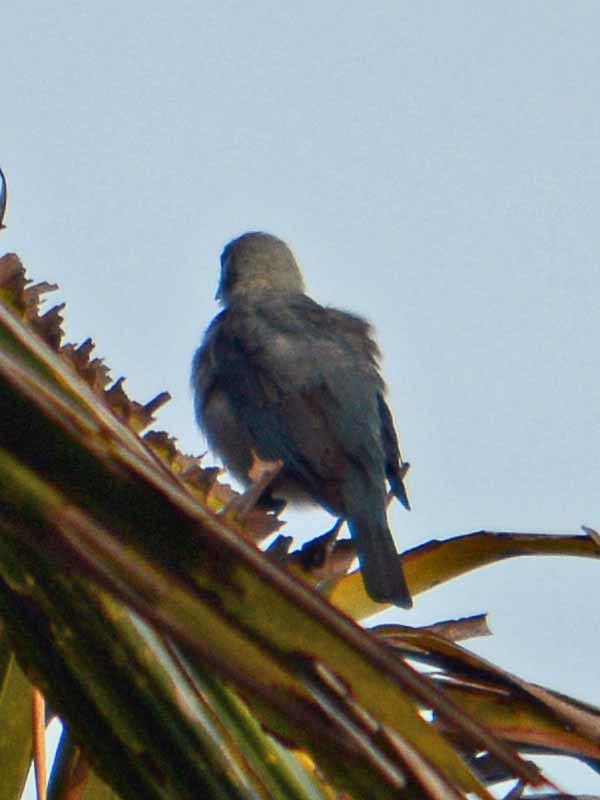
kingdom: Animalia
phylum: Chordata
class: Aves
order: Passeriformes
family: Thraupidae
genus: Thraupis
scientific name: Thraupis episcopus
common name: Blue-grey tanager
